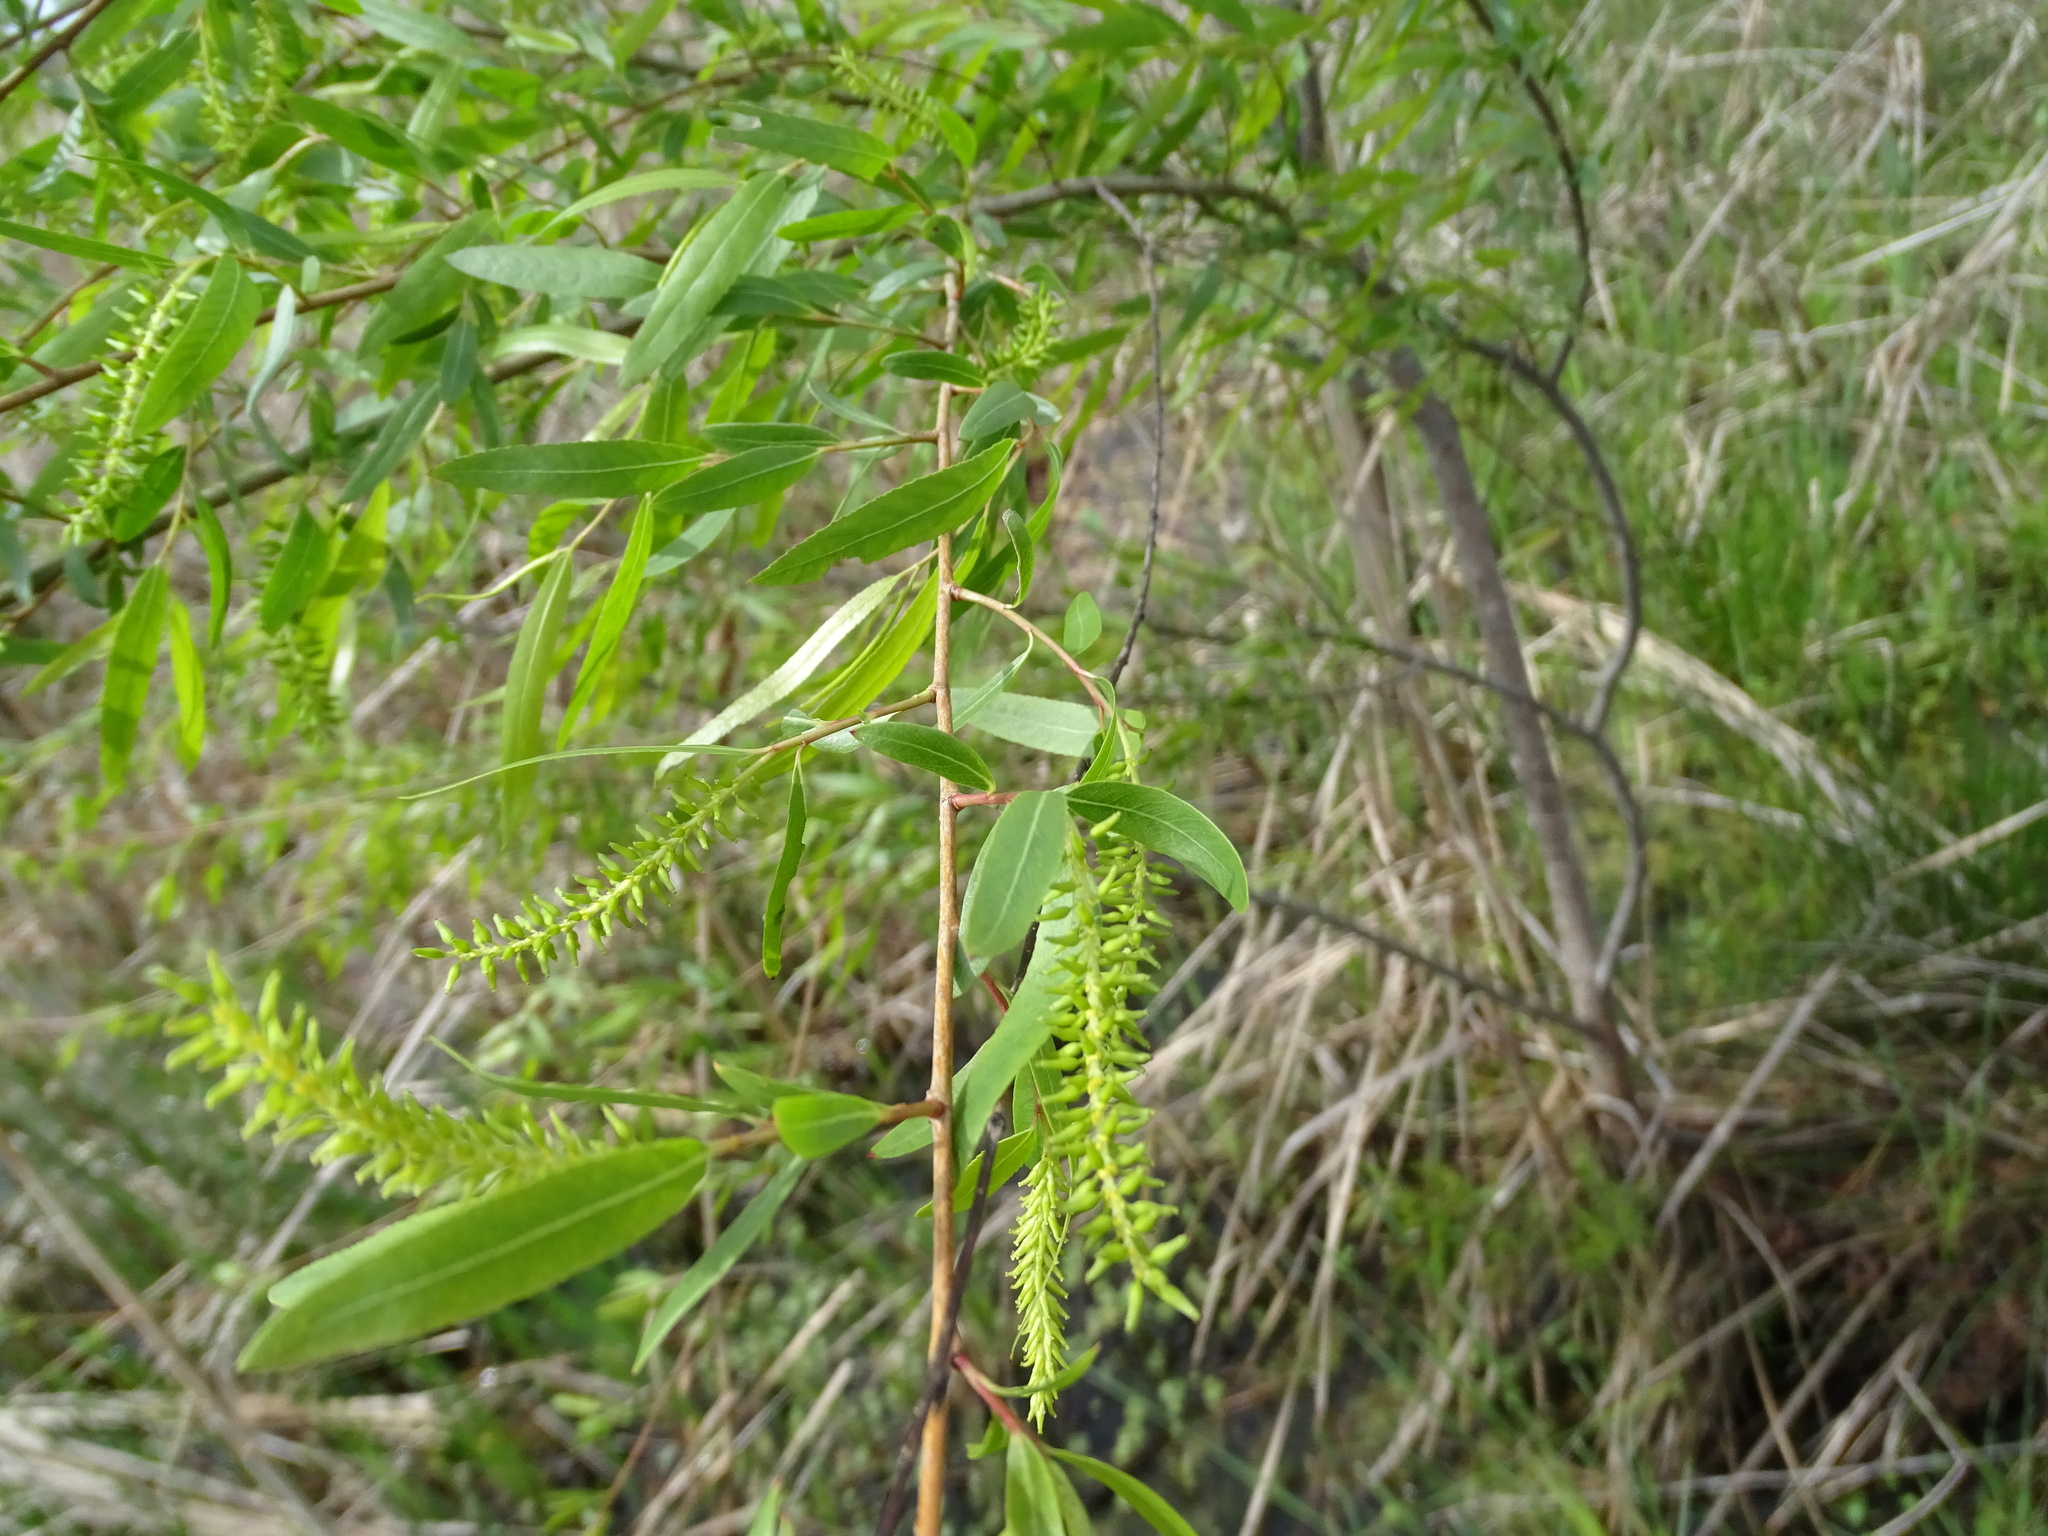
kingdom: Plantae
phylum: Tracheophyta
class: Magnoliopsida
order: Malpighiales
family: Salicaceae
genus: Salix
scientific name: Salix nigra
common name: Black willow
